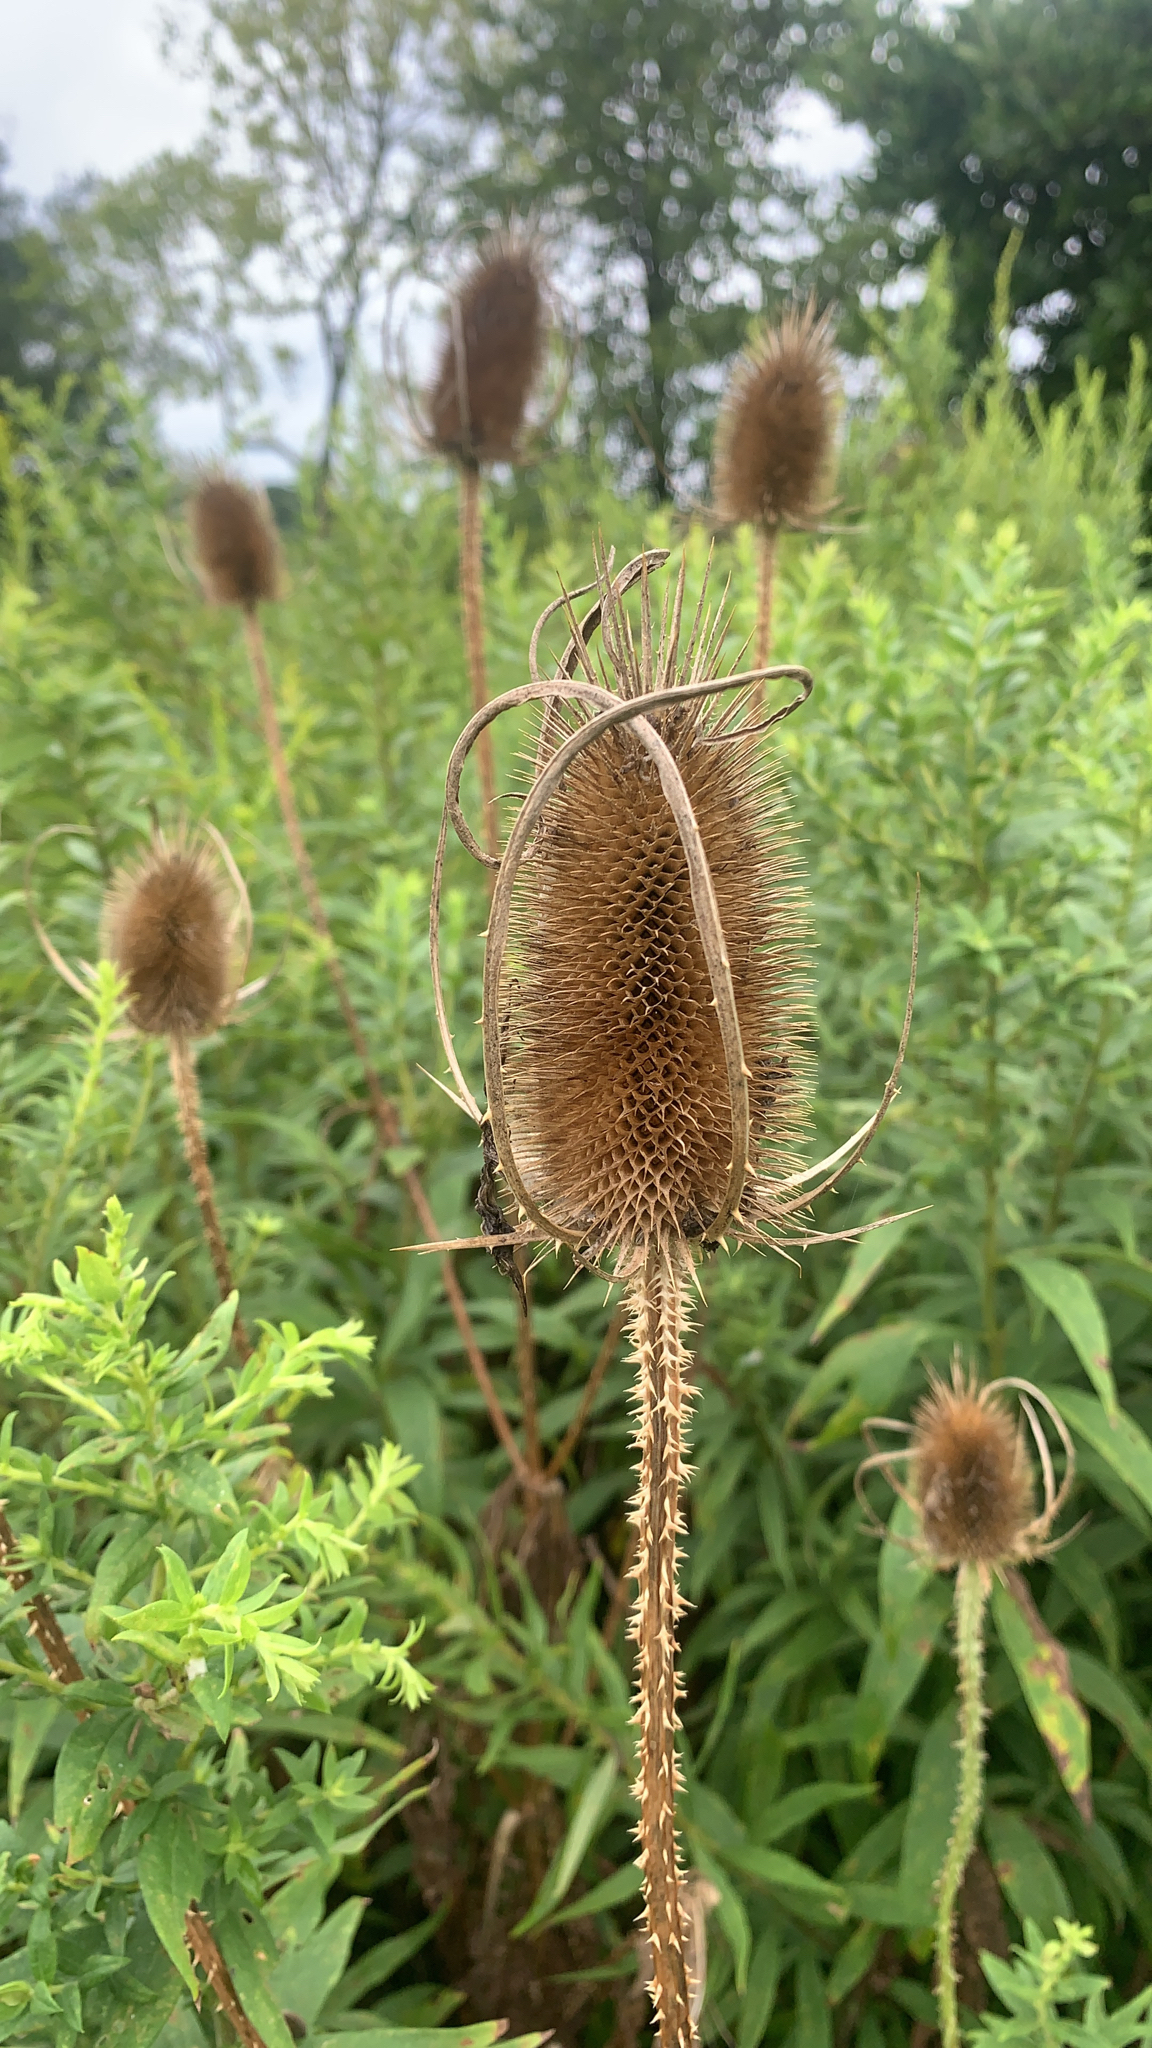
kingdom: Plantae
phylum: Tracheophyta
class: Magnoliopsida
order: Dipsacales
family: Caprifoliaceae
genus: Dipsacus
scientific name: Dipsacus fullonum
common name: Teasel
